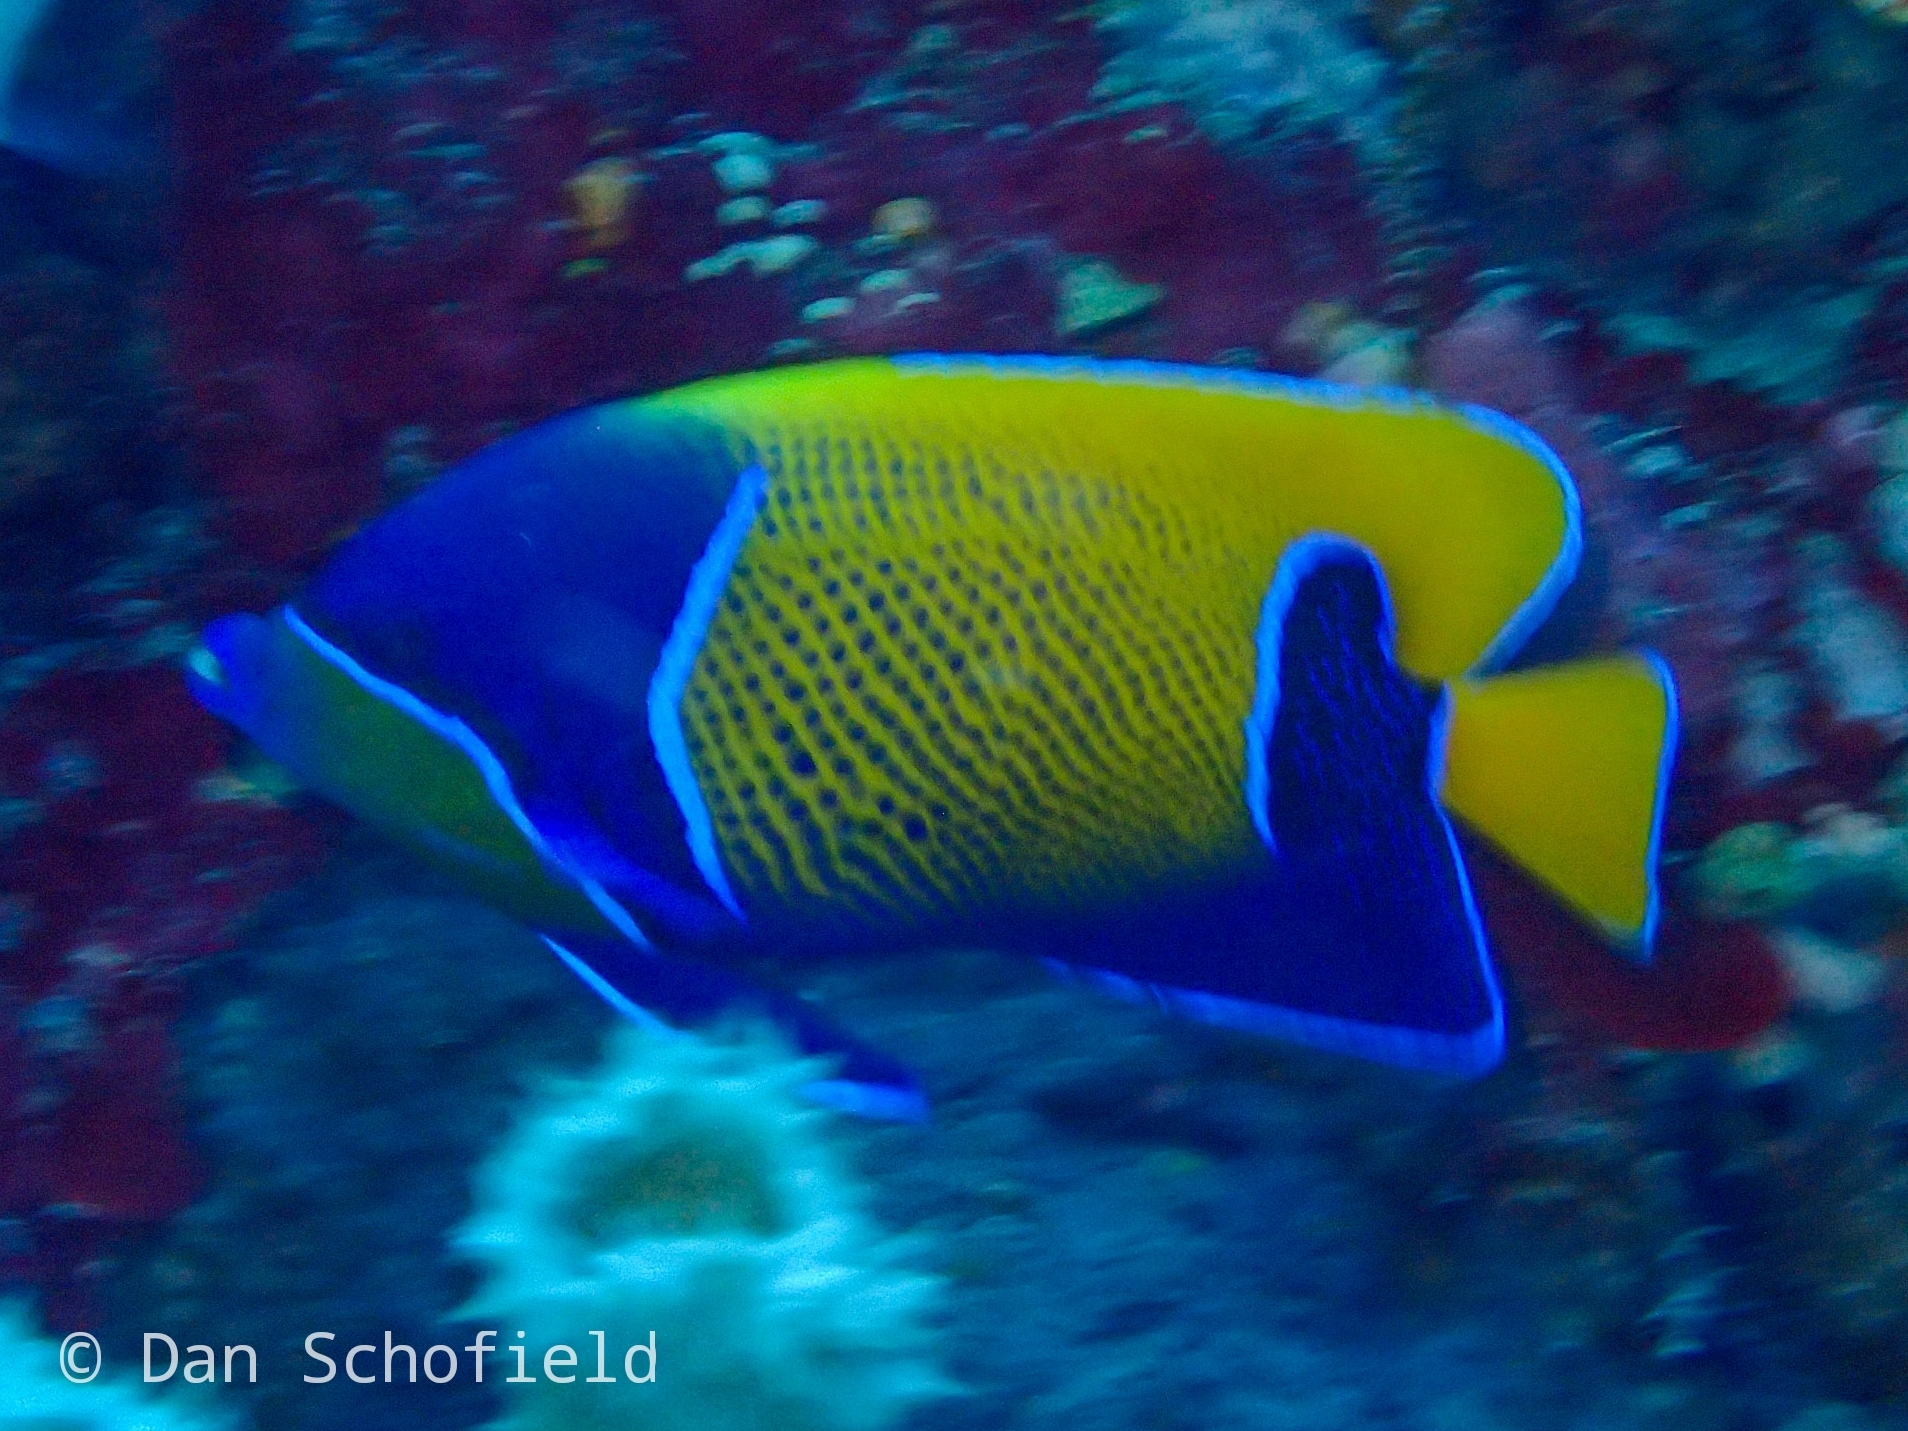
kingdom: Animalia
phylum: Chordata
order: Perciformes
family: Pomacanthidae
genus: Pomacanthus
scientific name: Pomacanthus navarchus
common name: Blue-girdled angelfish
